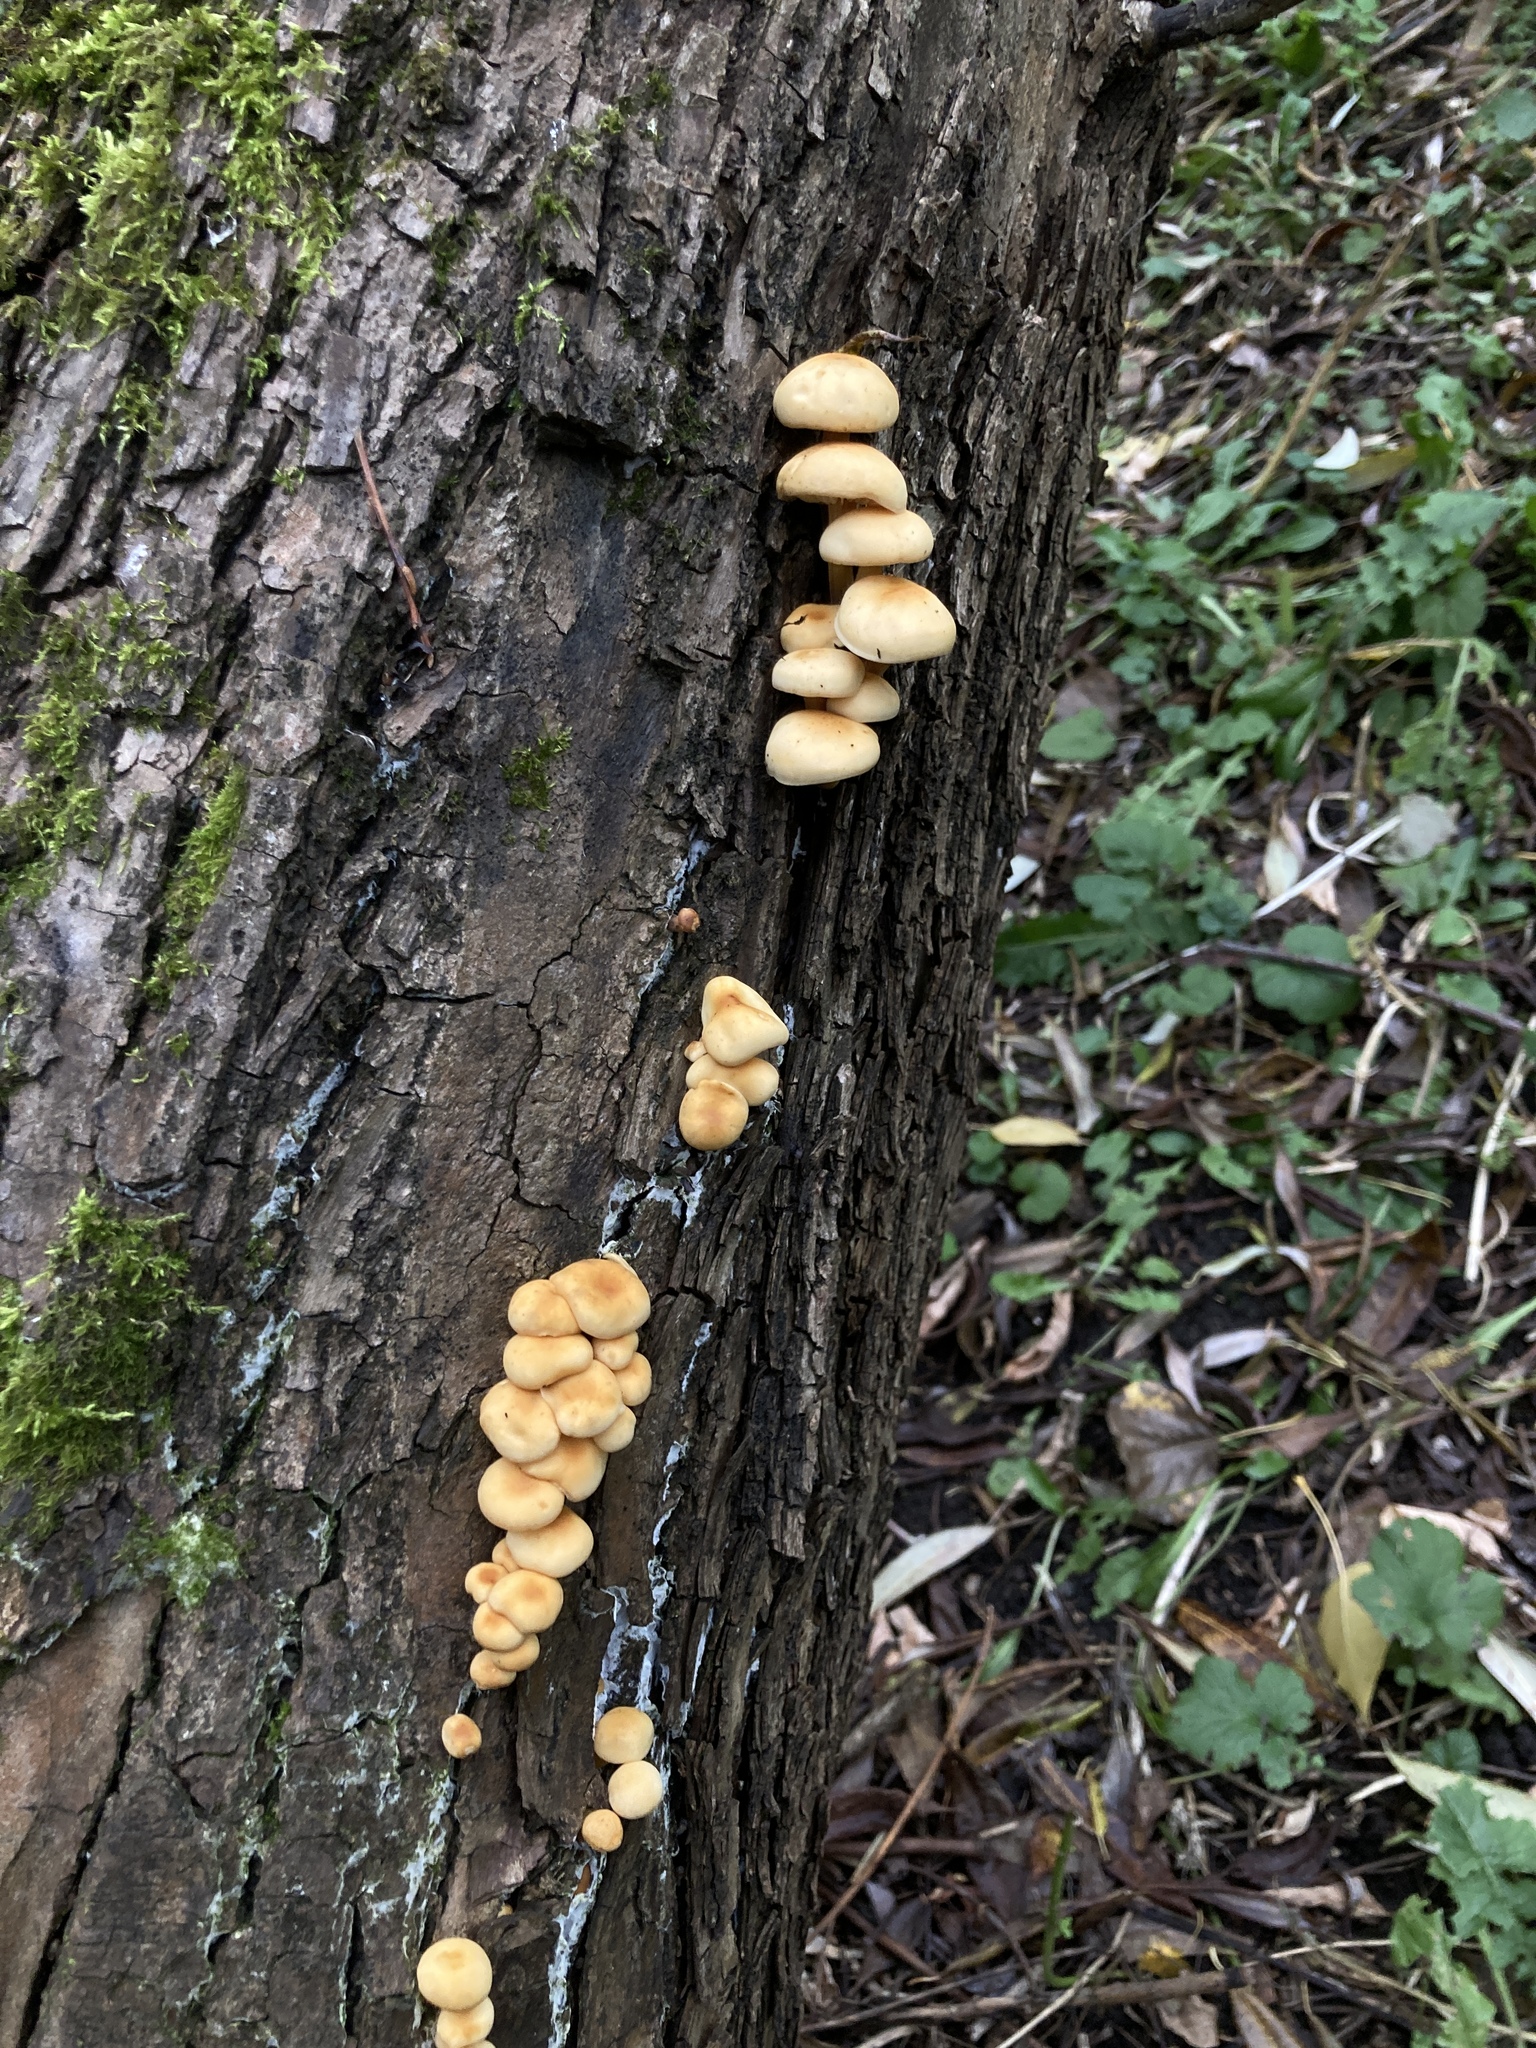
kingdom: Fungi
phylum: Basidiomycota
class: Agaricomycetes
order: Agaricales
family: Physalacriaceae
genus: Flammulina
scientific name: Flammulina
